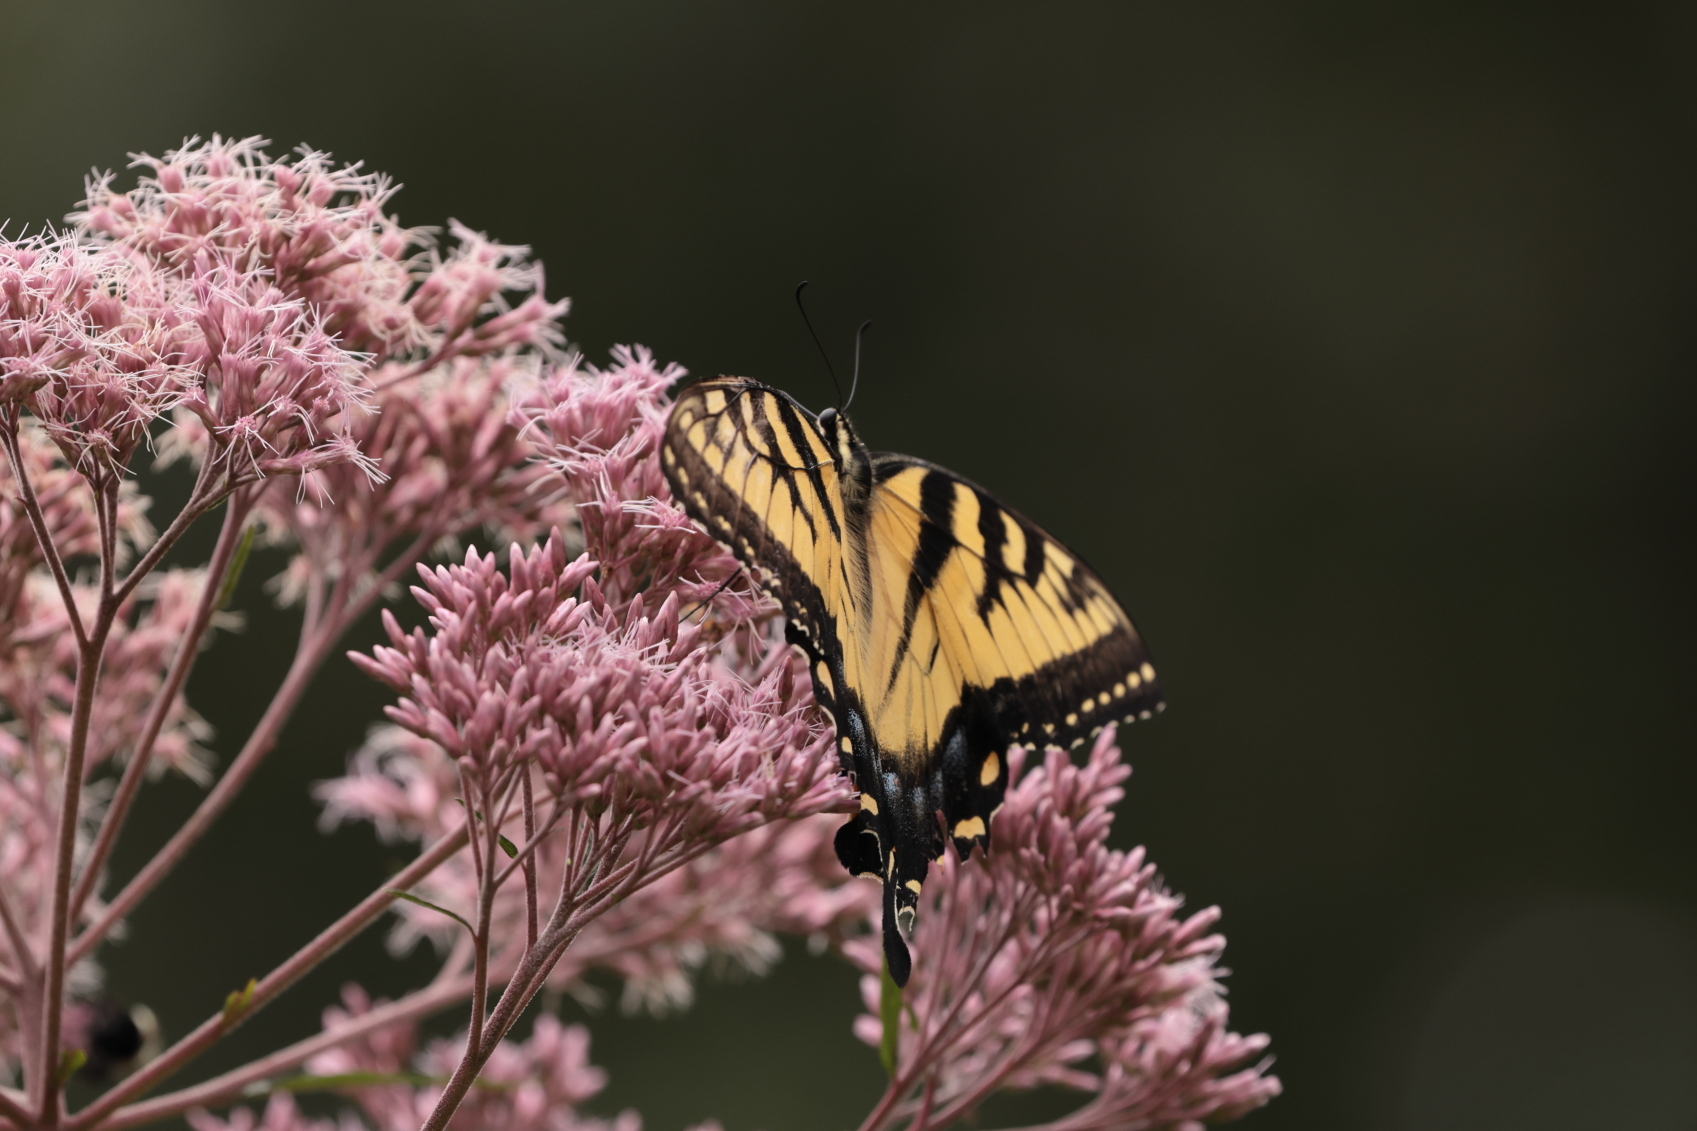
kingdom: Animalia
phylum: Arthropoda
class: Insecta
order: Lepidoptera
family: Papilionidae
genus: Papilio
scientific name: Papilio glaucus
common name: Tiger swallowtail
